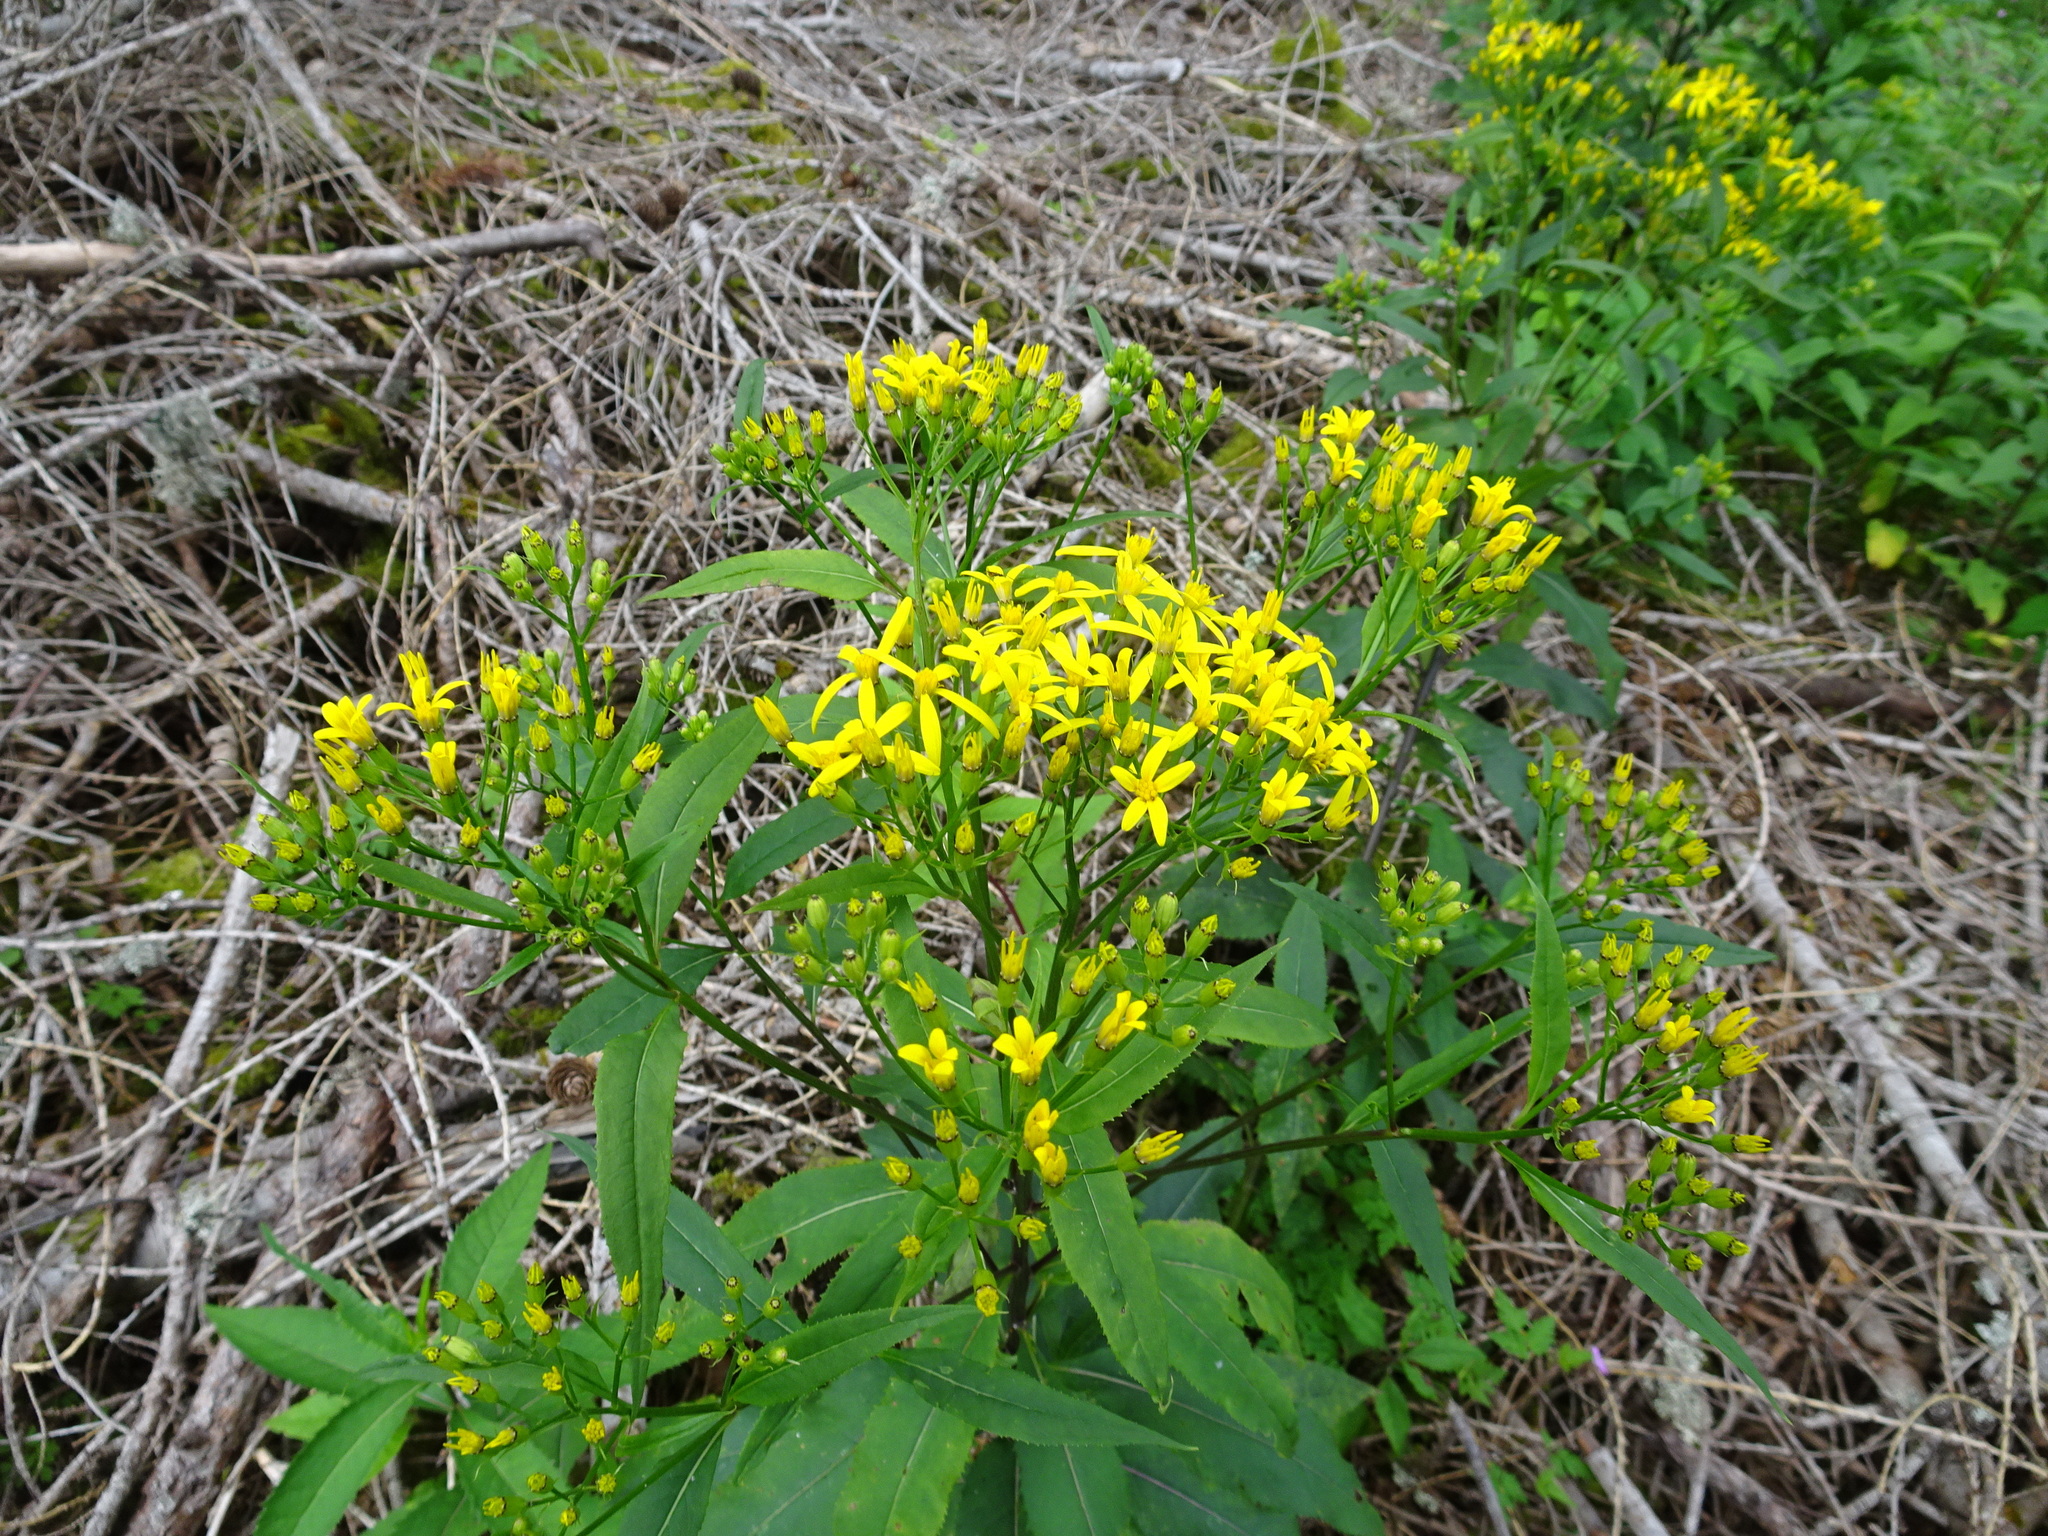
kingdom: Plantae
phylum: Tracheophyta
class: Magnoliopsida
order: Asterales
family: Asteraceae
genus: Senecio
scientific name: Senecio ovatus
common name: Wood ragwort
